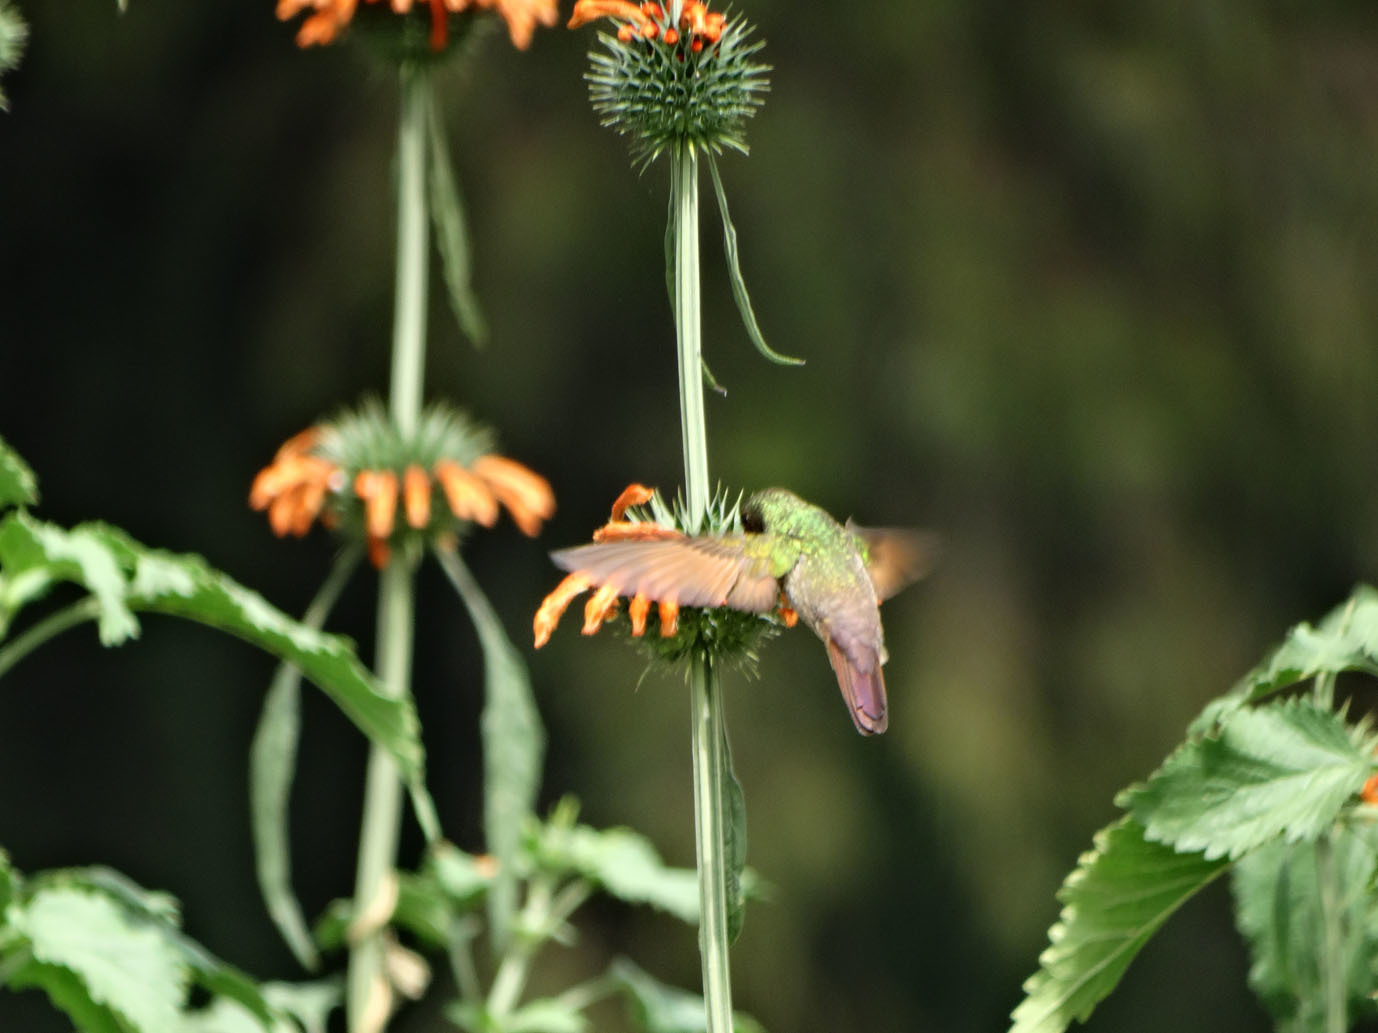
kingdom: Animalia
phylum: Chordata
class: Aves
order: Apodiformes
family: Trochilidae
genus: Saucerottia
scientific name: Saucerottia beryllina
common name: Berylline hummingbird
